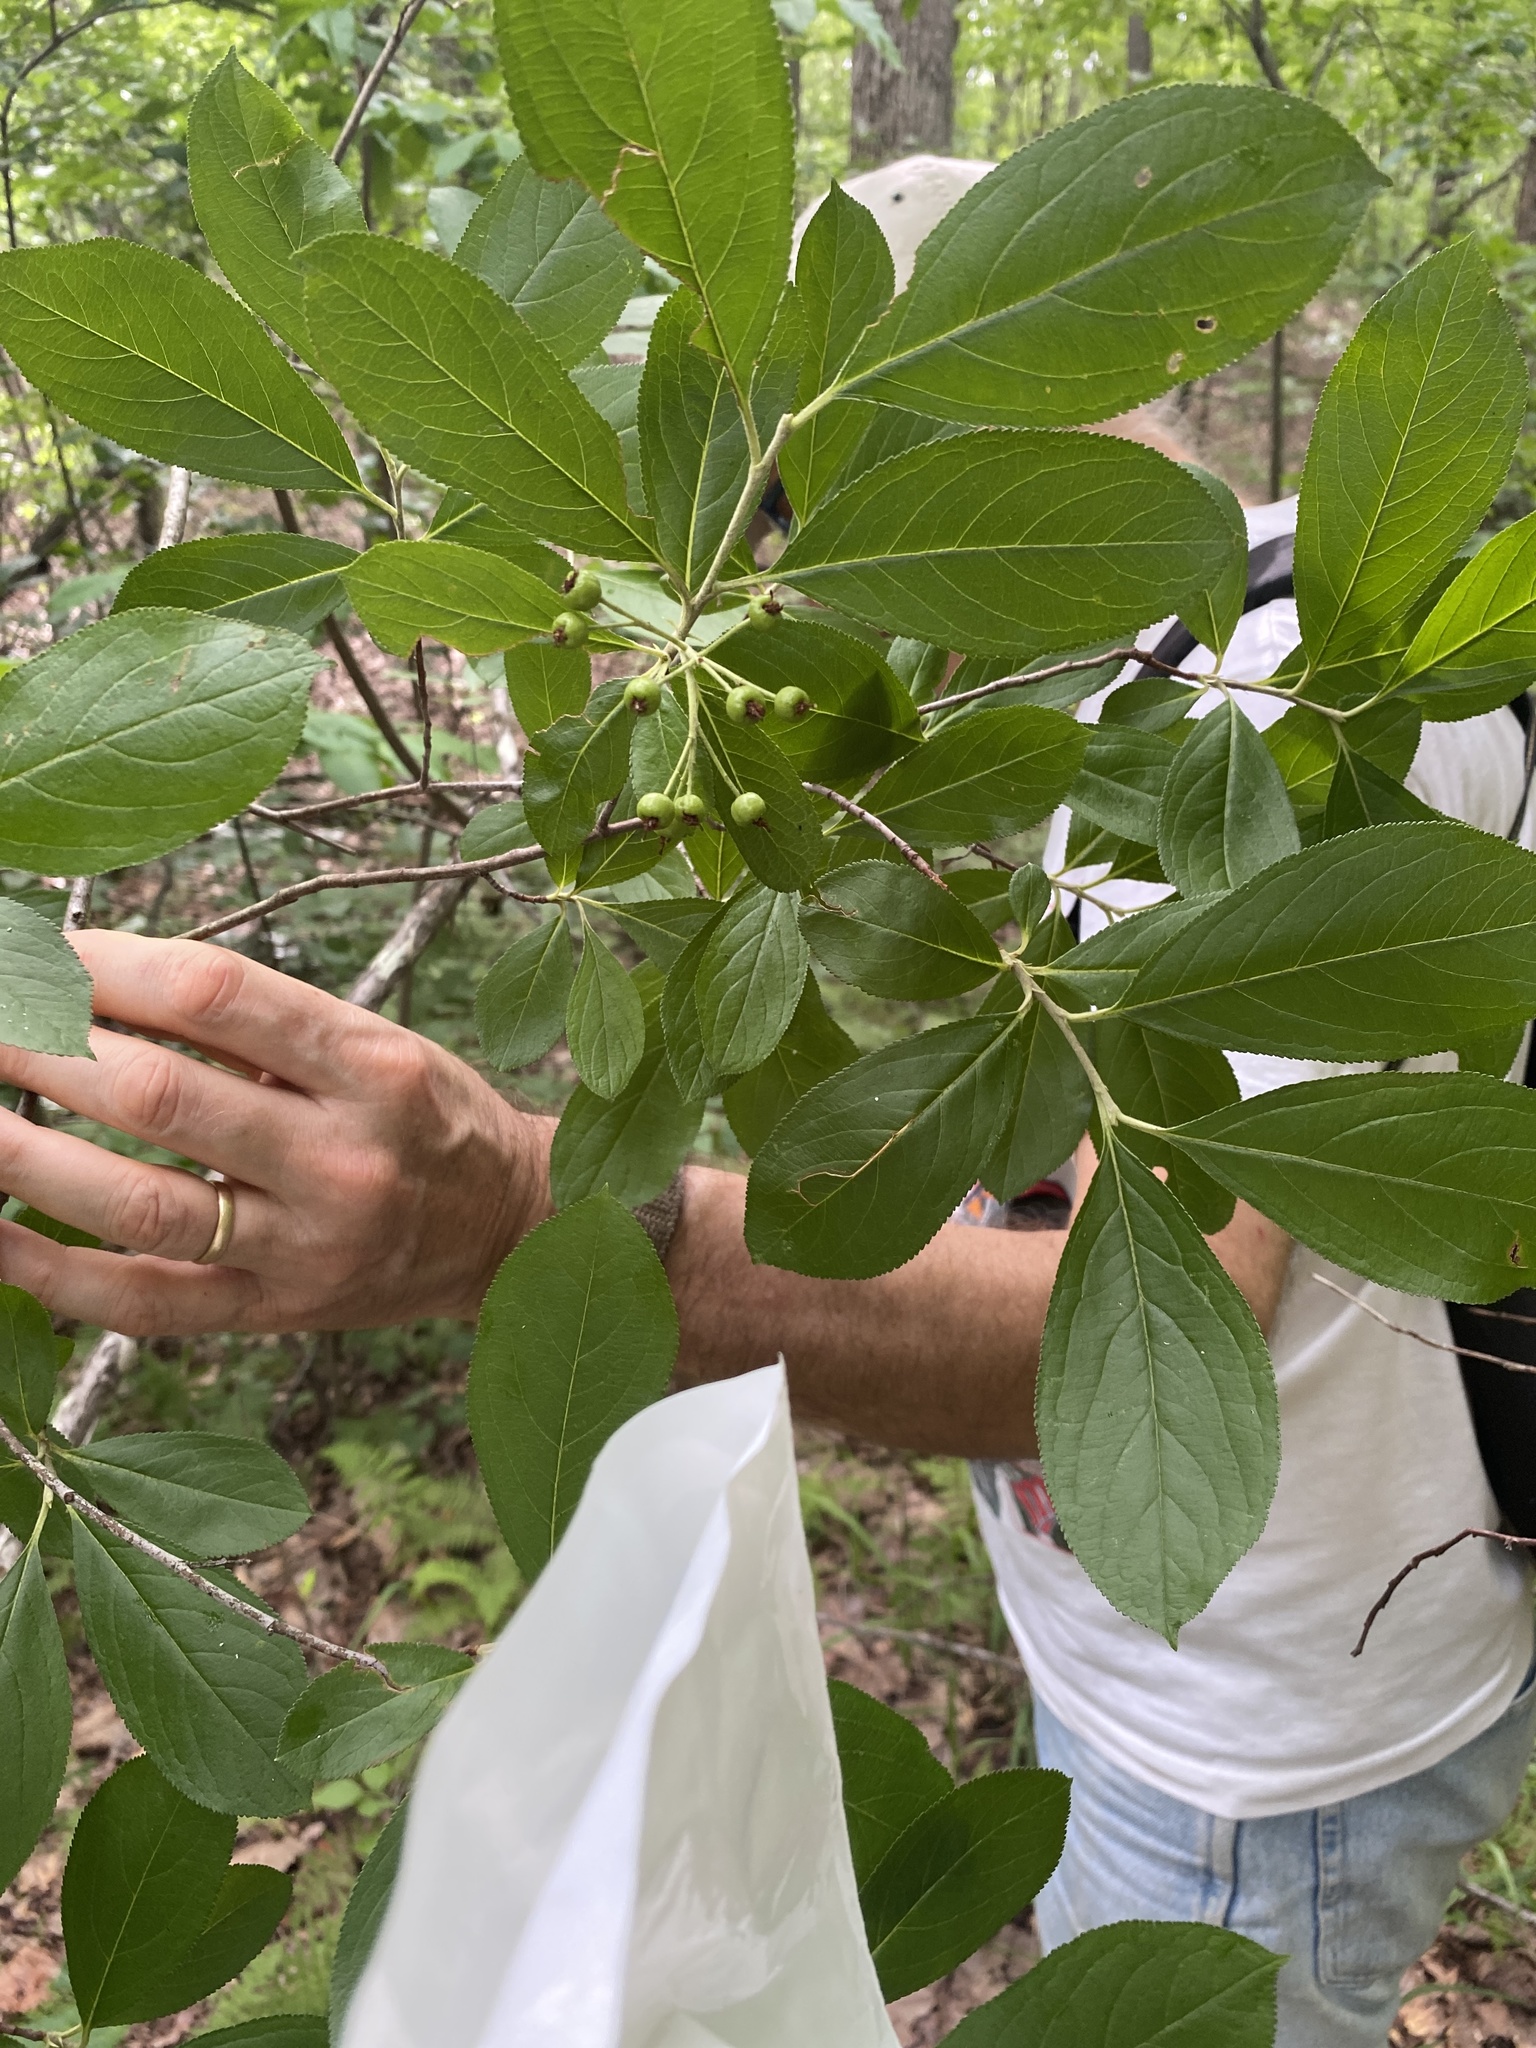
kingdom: Plantae
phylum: Tracheophyta
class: Magnoliopsida
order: Rosales
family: Rosaceae
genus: Aronia
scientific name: Aronia arbutifolia
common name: Red chokeberry
